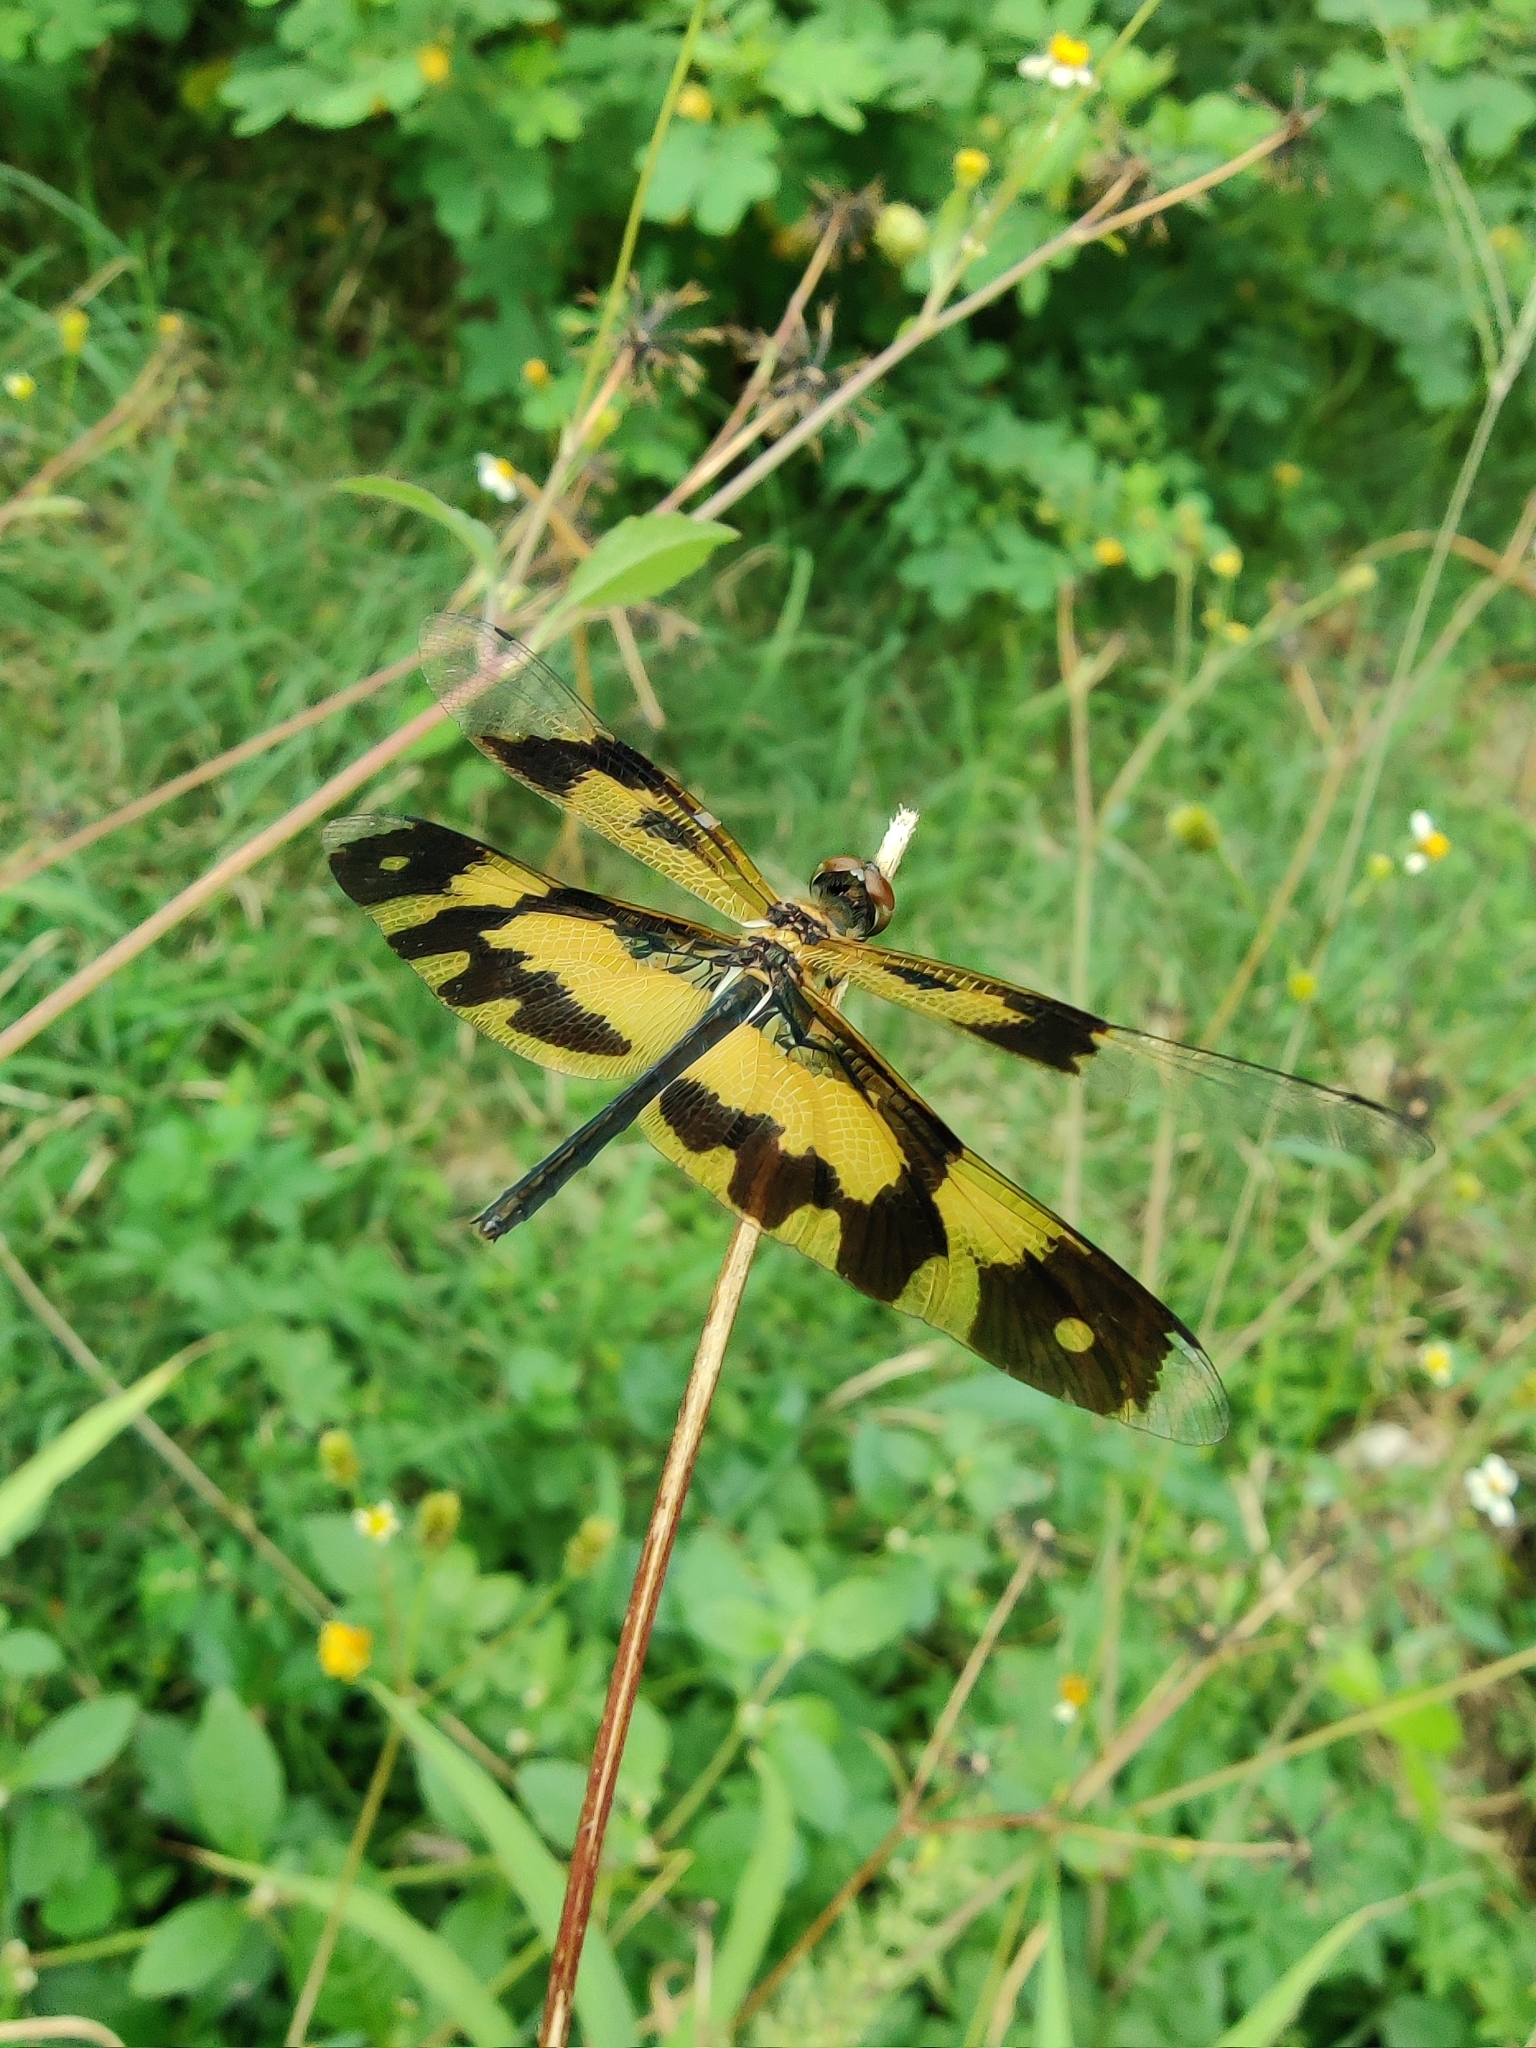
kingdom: Animalia
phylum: Arthropoda
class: Insecta
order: Odonata
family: Libellulidae
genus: Rhyothemis
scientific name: Rhyothemis variegata
